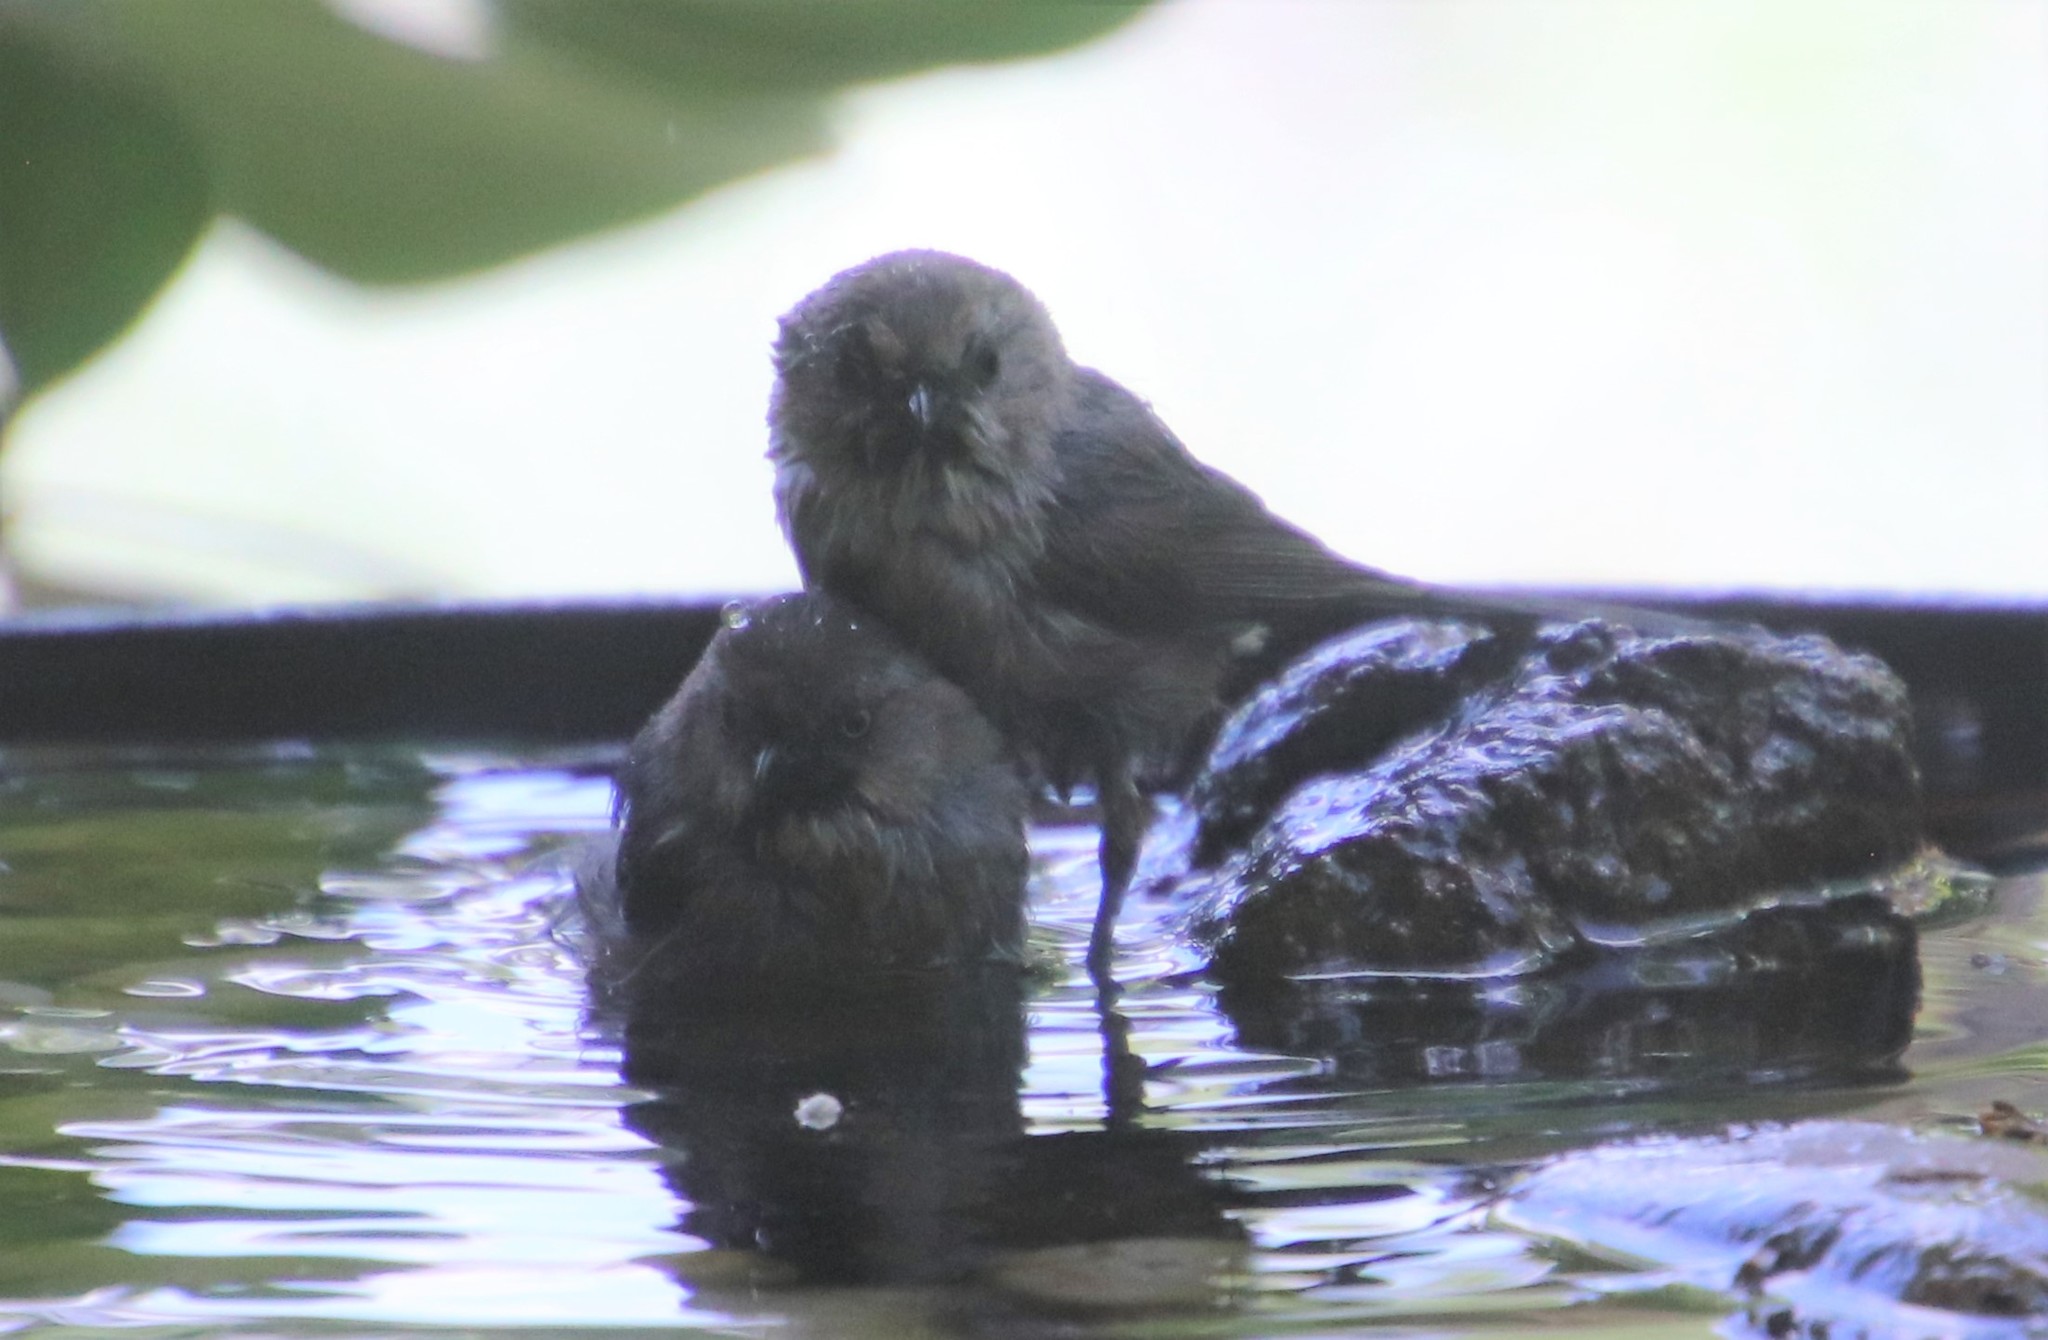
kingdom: Animalia
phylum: Chordata
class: Aves
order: Passeriformes
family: Aegithalidae
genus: Psaltriparus
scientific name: Psaltriparus minimus
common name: American bushtit
